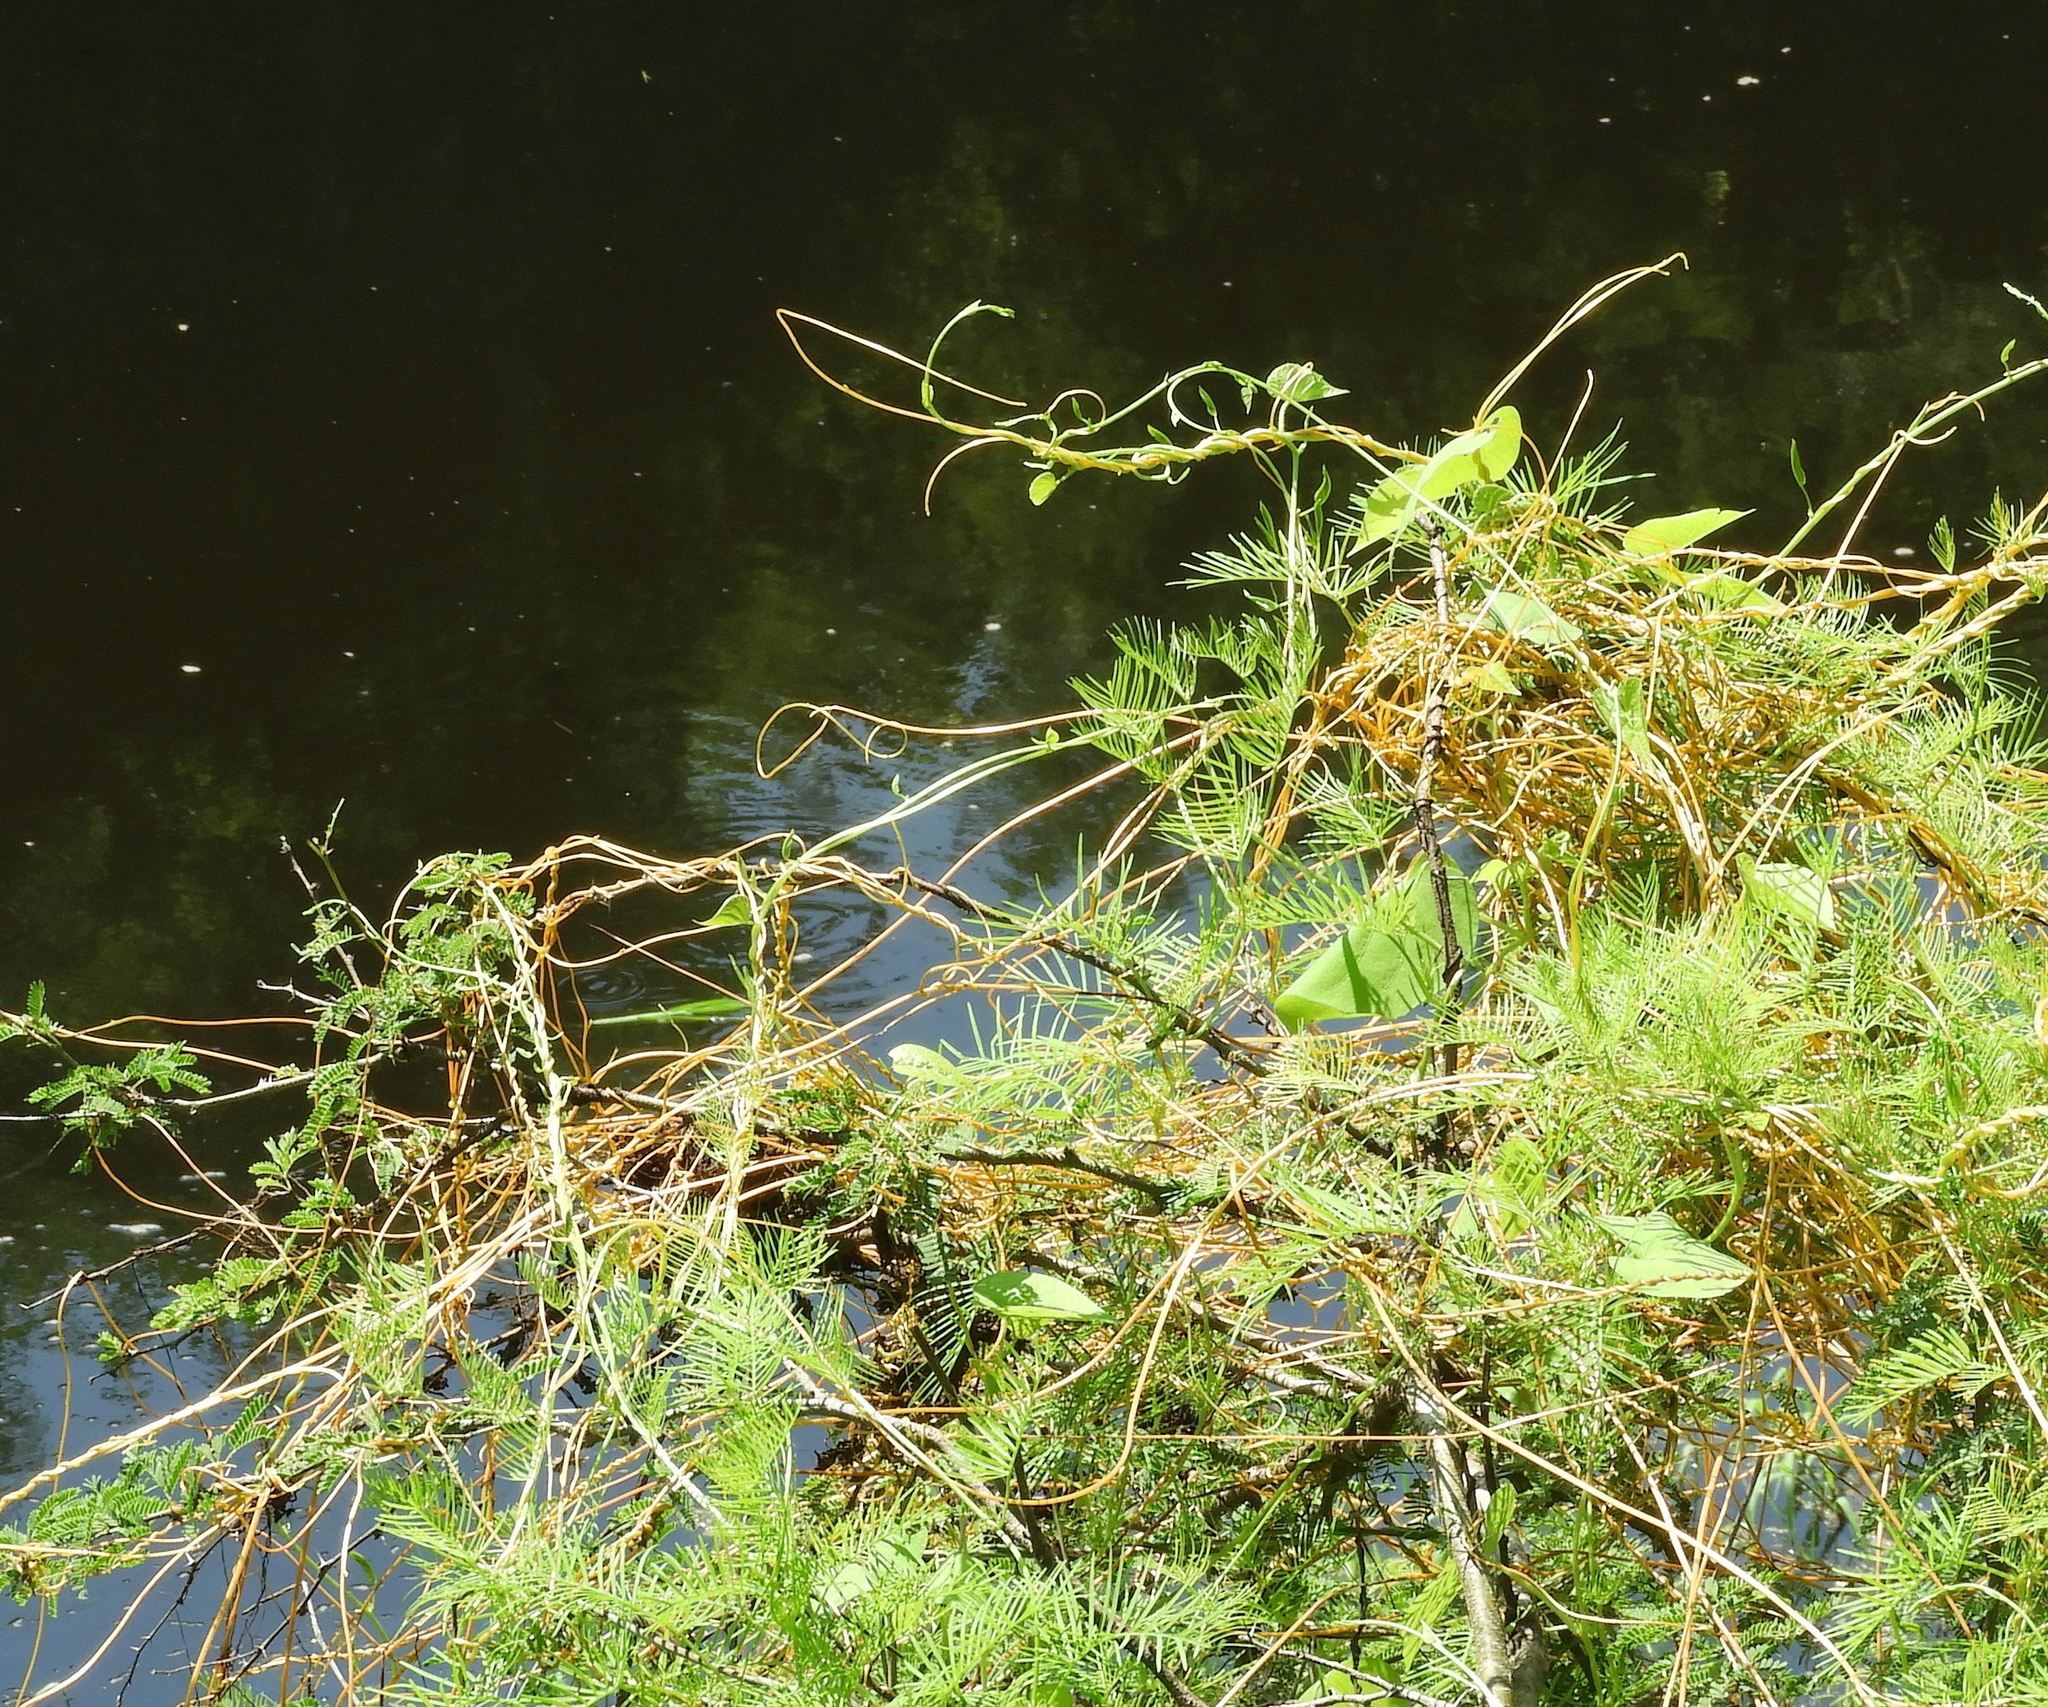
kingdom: Plantae
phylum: Tracheophyta
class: Magnoliopsida
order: Solanales
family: Convolvulaceae
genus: Cuscuta
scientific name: Cuscuta
